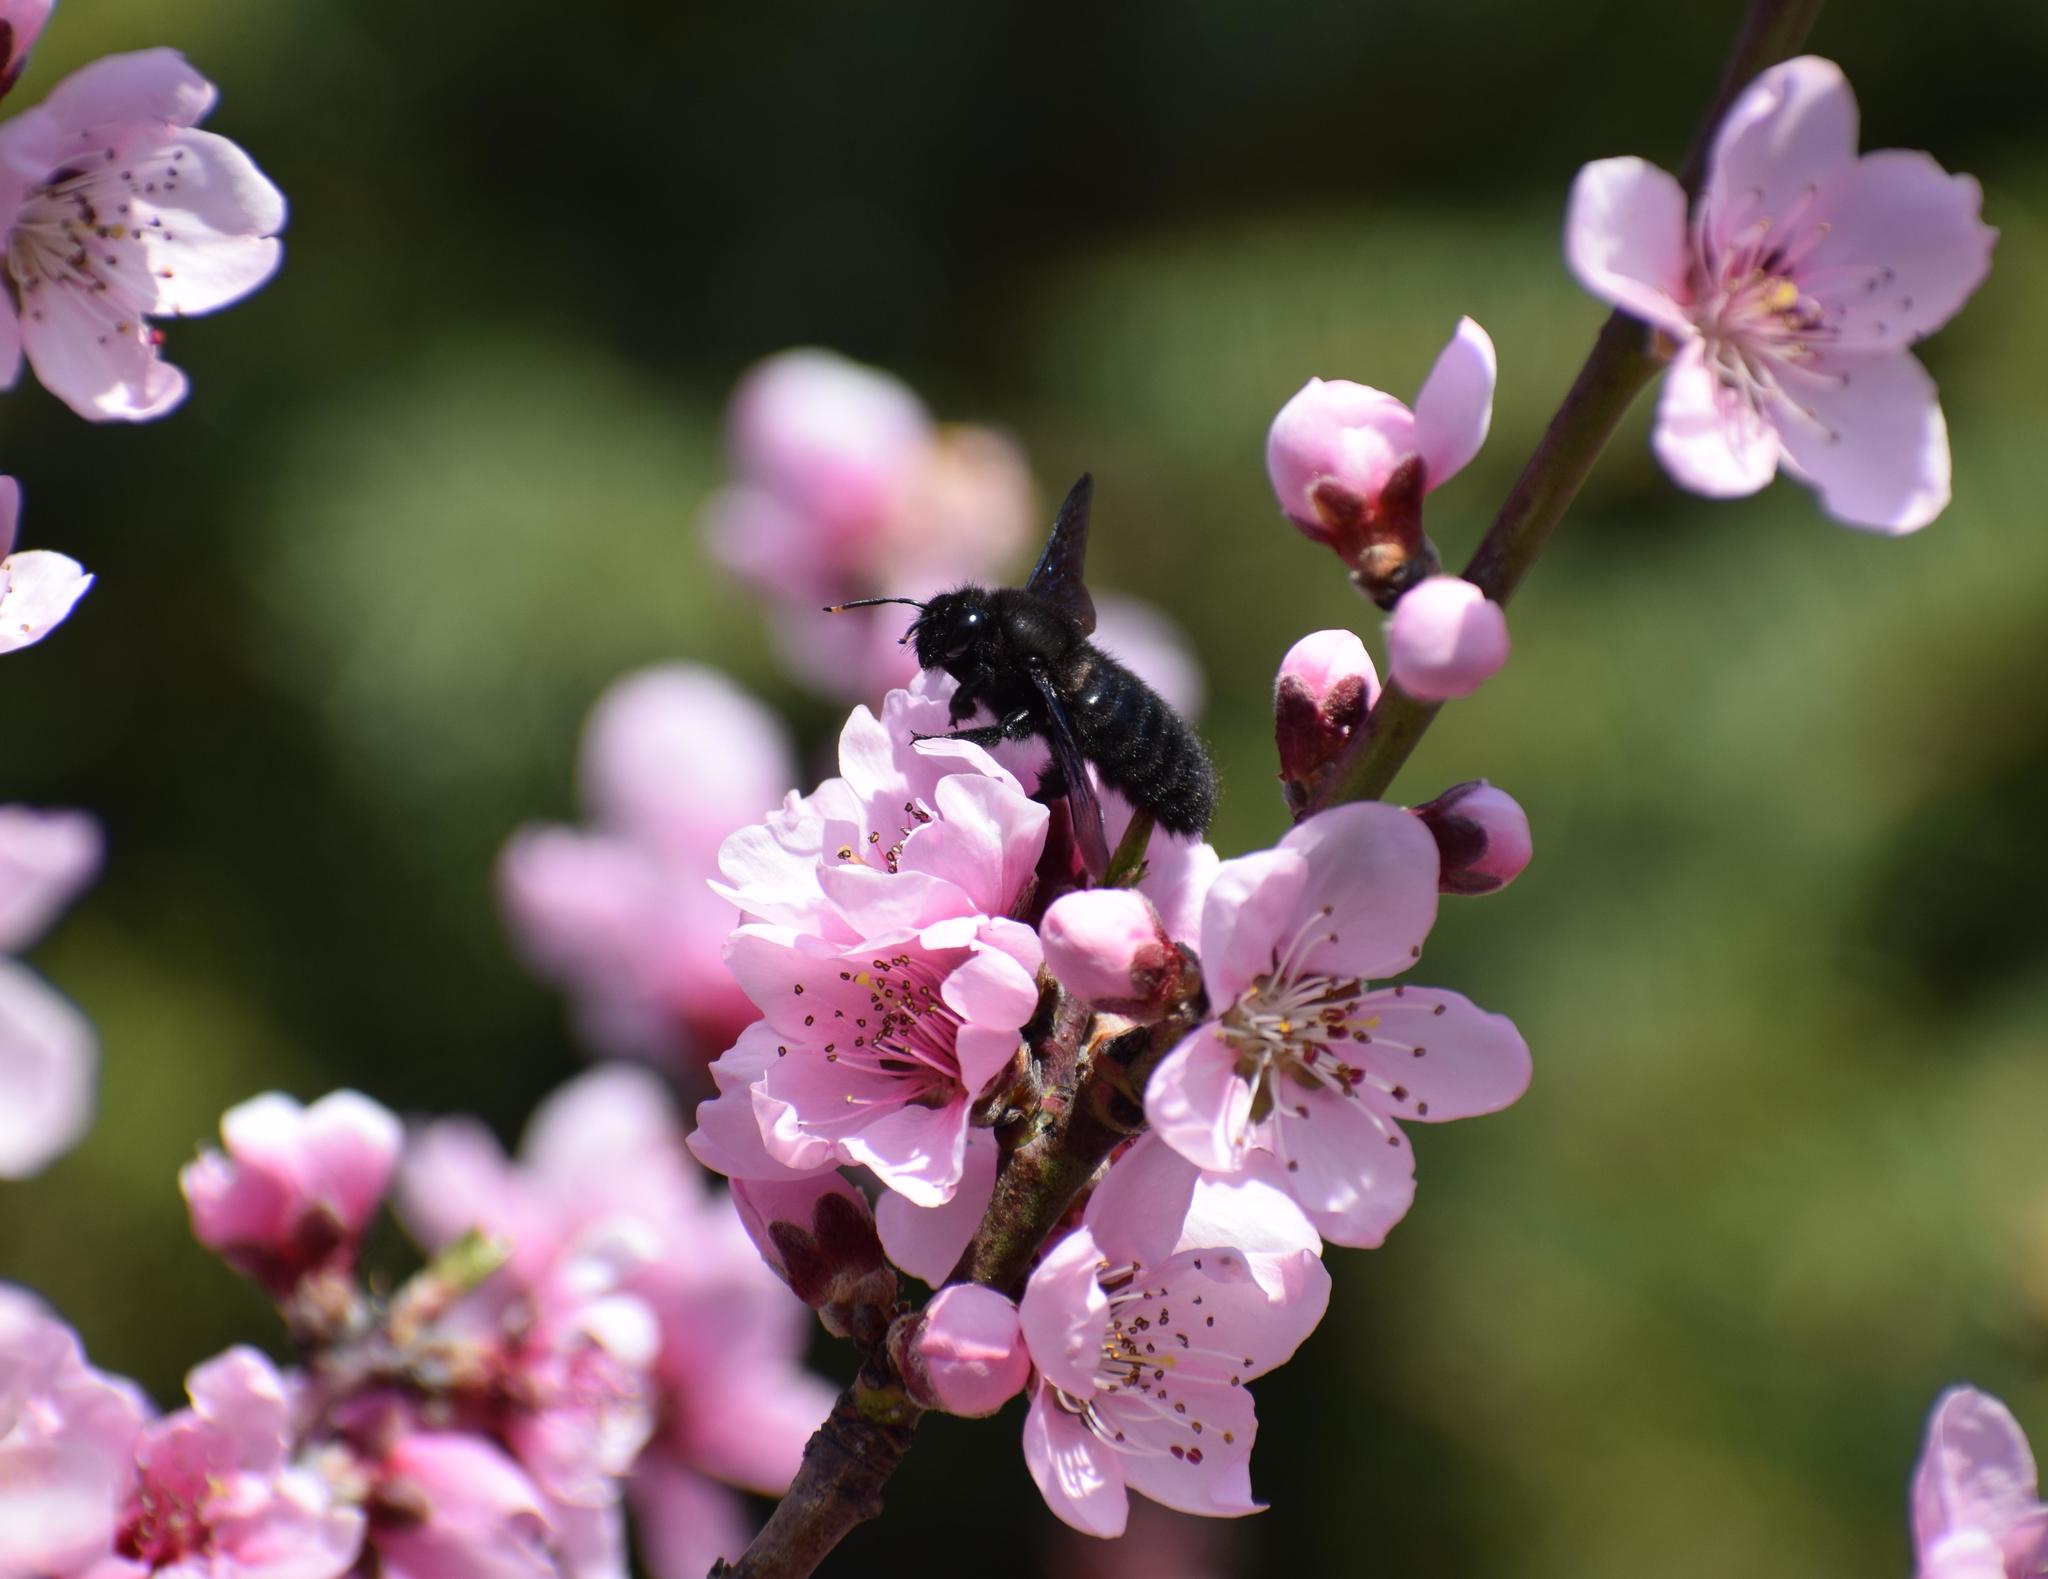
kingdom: Animalia
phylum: Arthropoda
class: Insecta
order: Hymenoptera
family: Apidae
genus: Xylocopa
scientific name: Xylocopa violacea
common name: Violet carpenter bee
